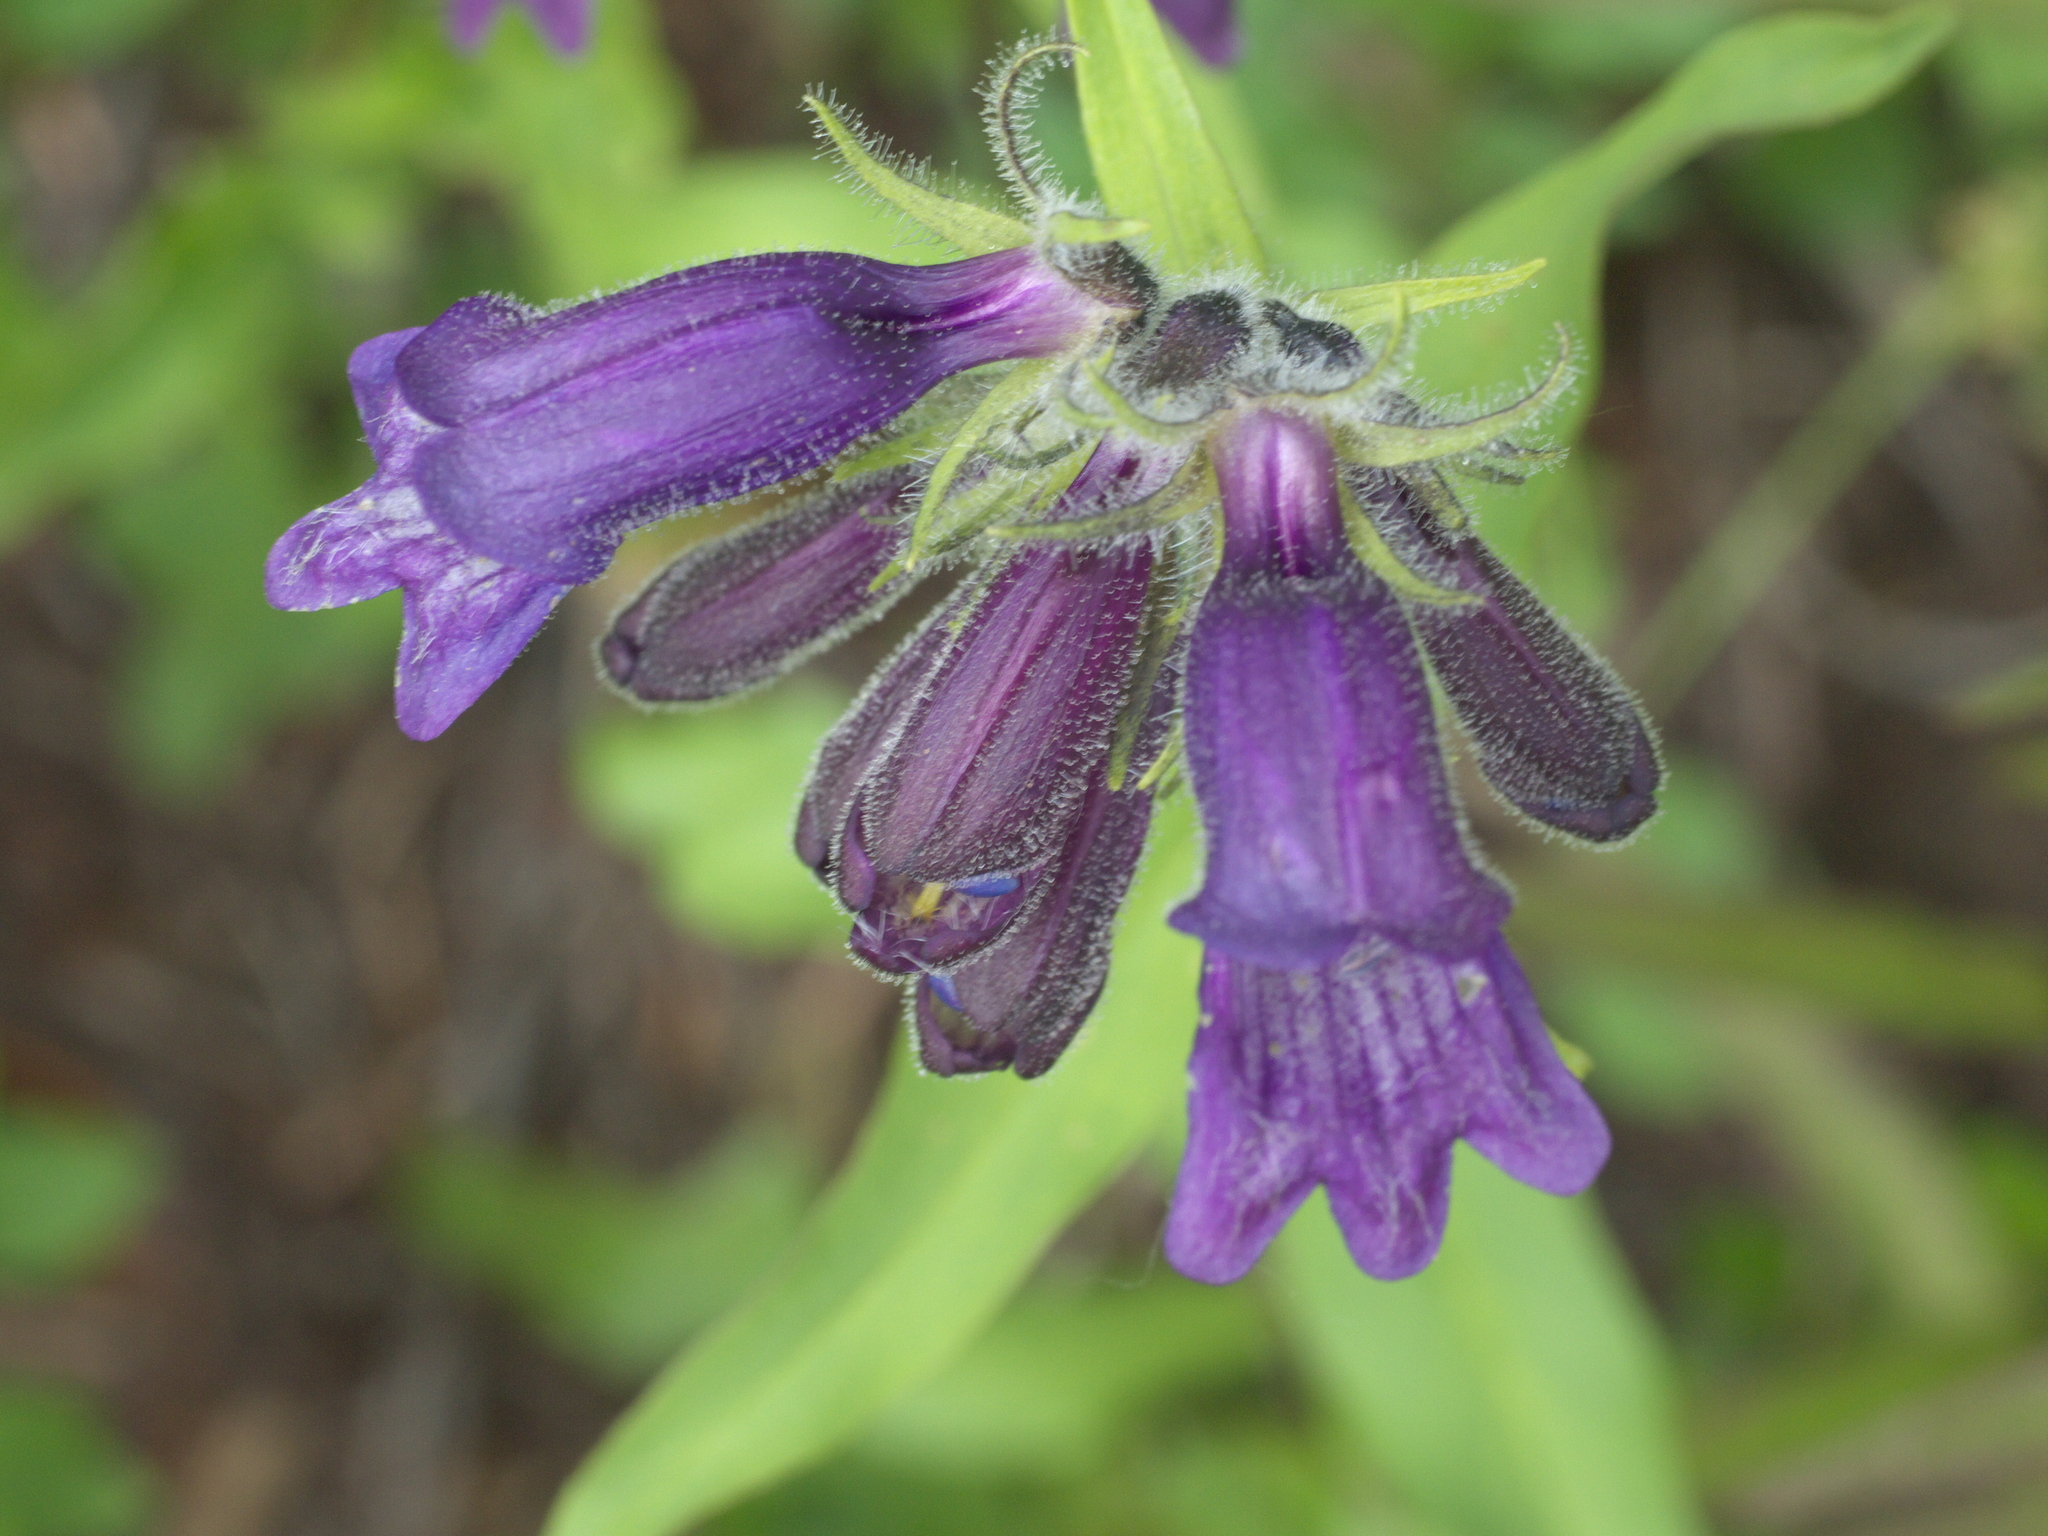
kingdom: Plantae
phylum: Tracheophyta
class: Magnoliopsida
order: Lamiales
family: Plantaginaceae
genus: Penstemon
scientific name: Penstemon whippleanus
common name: Whipple's penstemon
